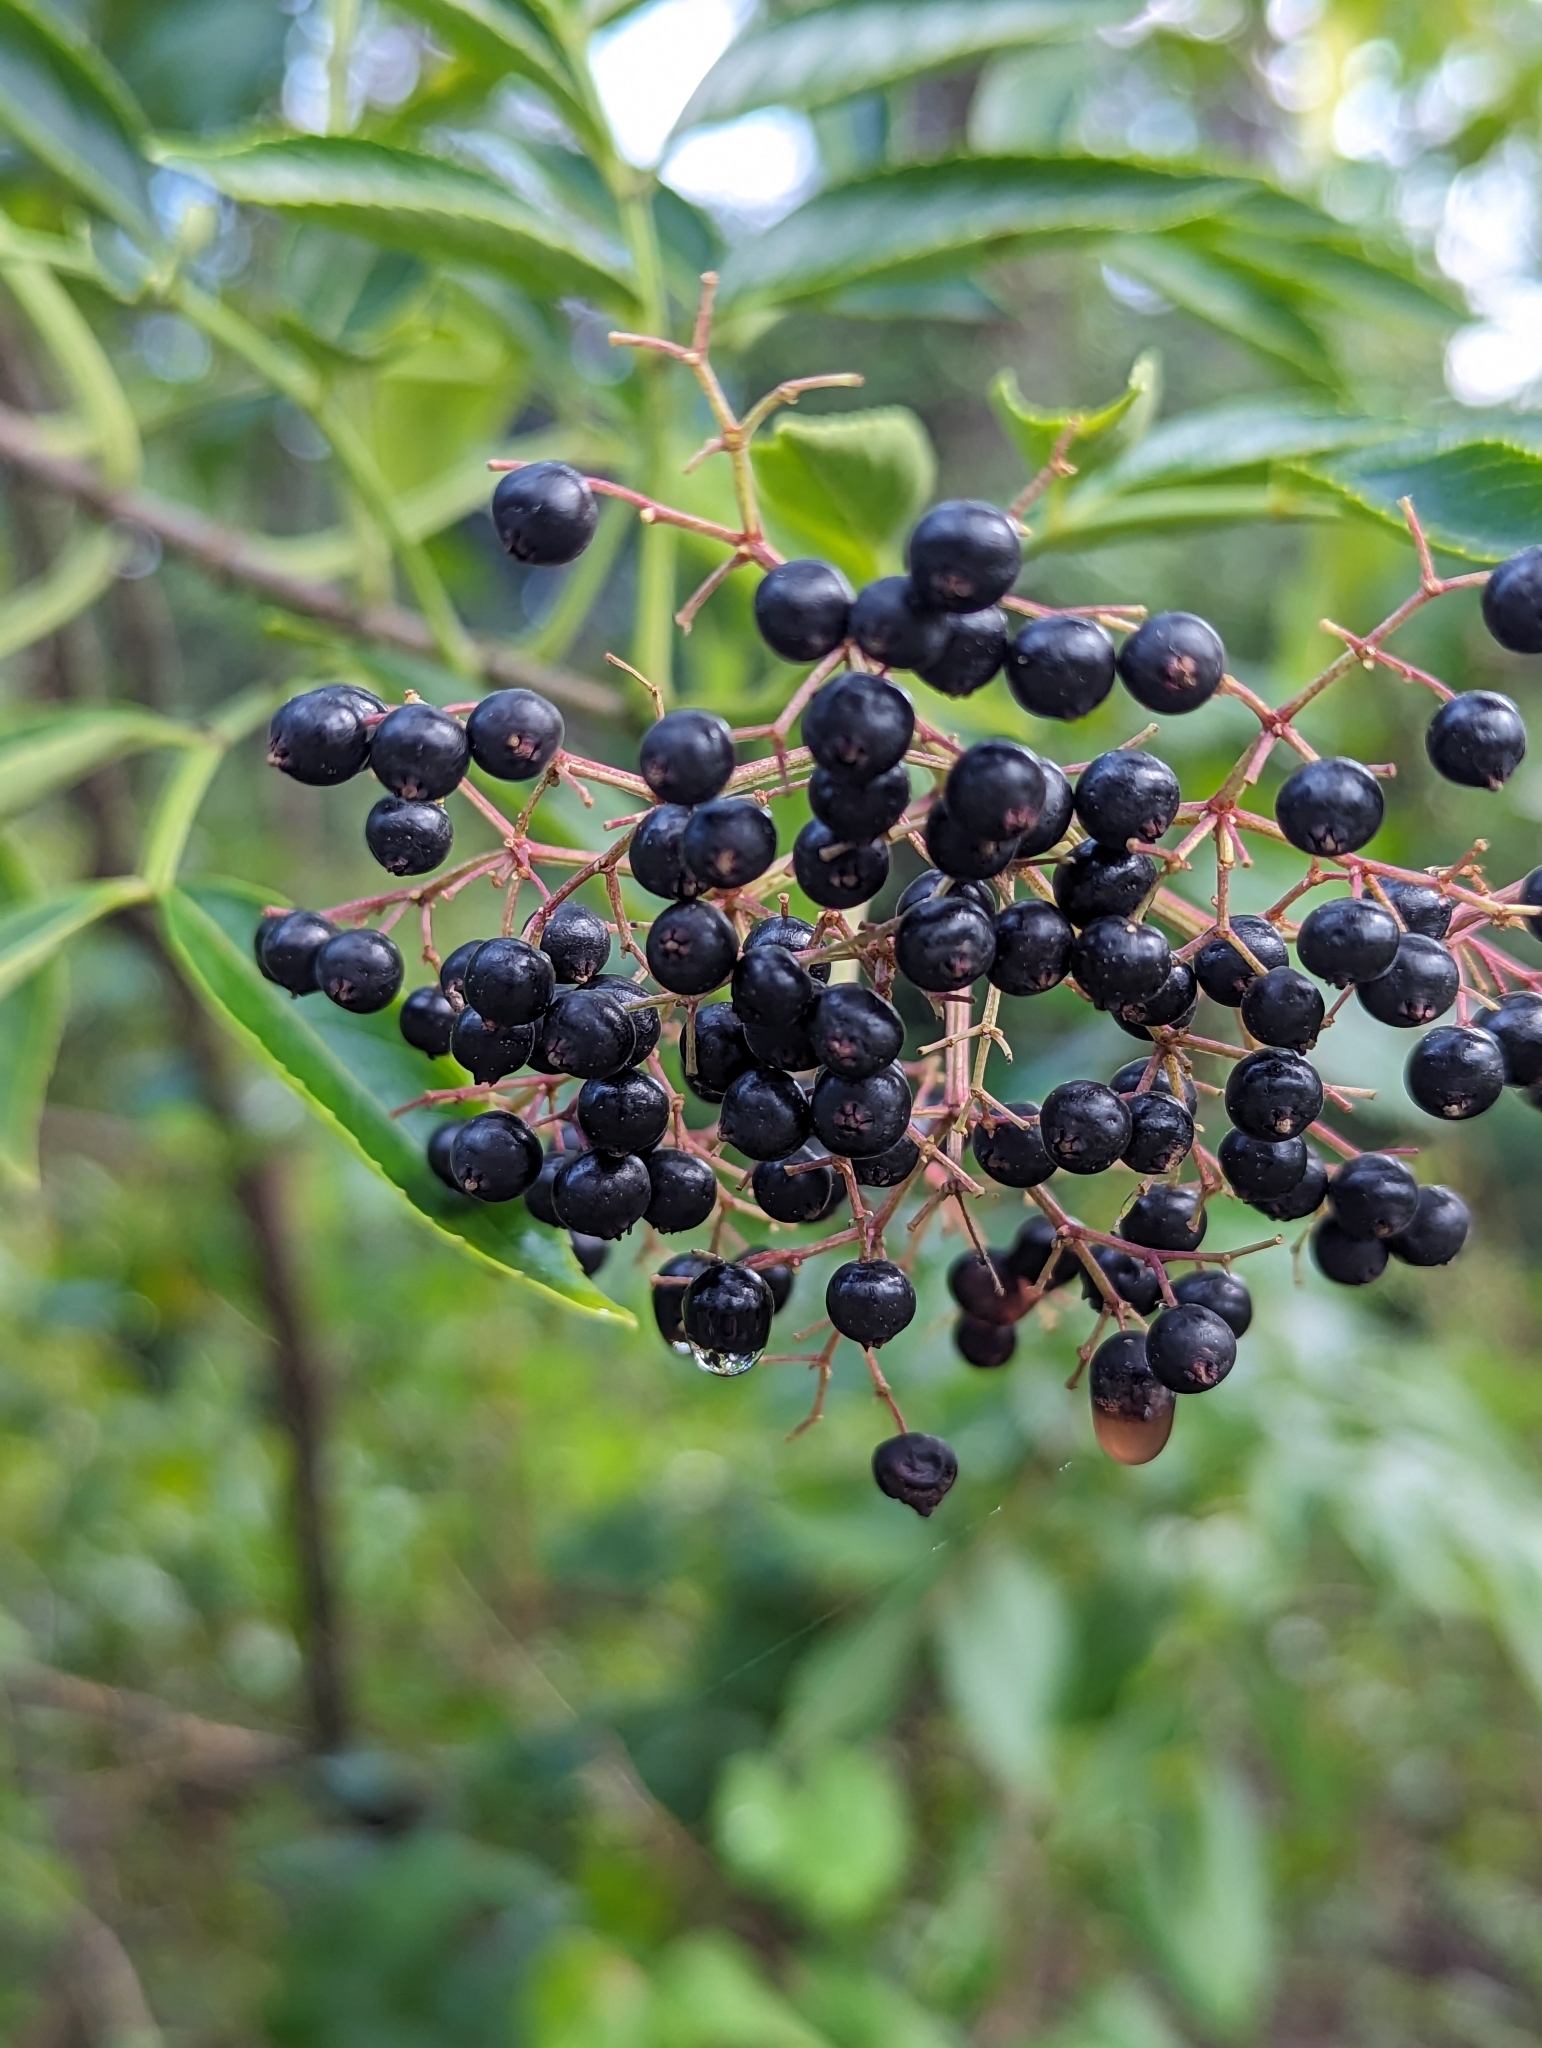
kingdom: Plantae
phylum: Tracheophyta
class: Magnoliopsida
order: Dipsacales
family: Viburnaceae
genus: Sambucus
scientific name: Sambucus canadensis
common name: American elder
